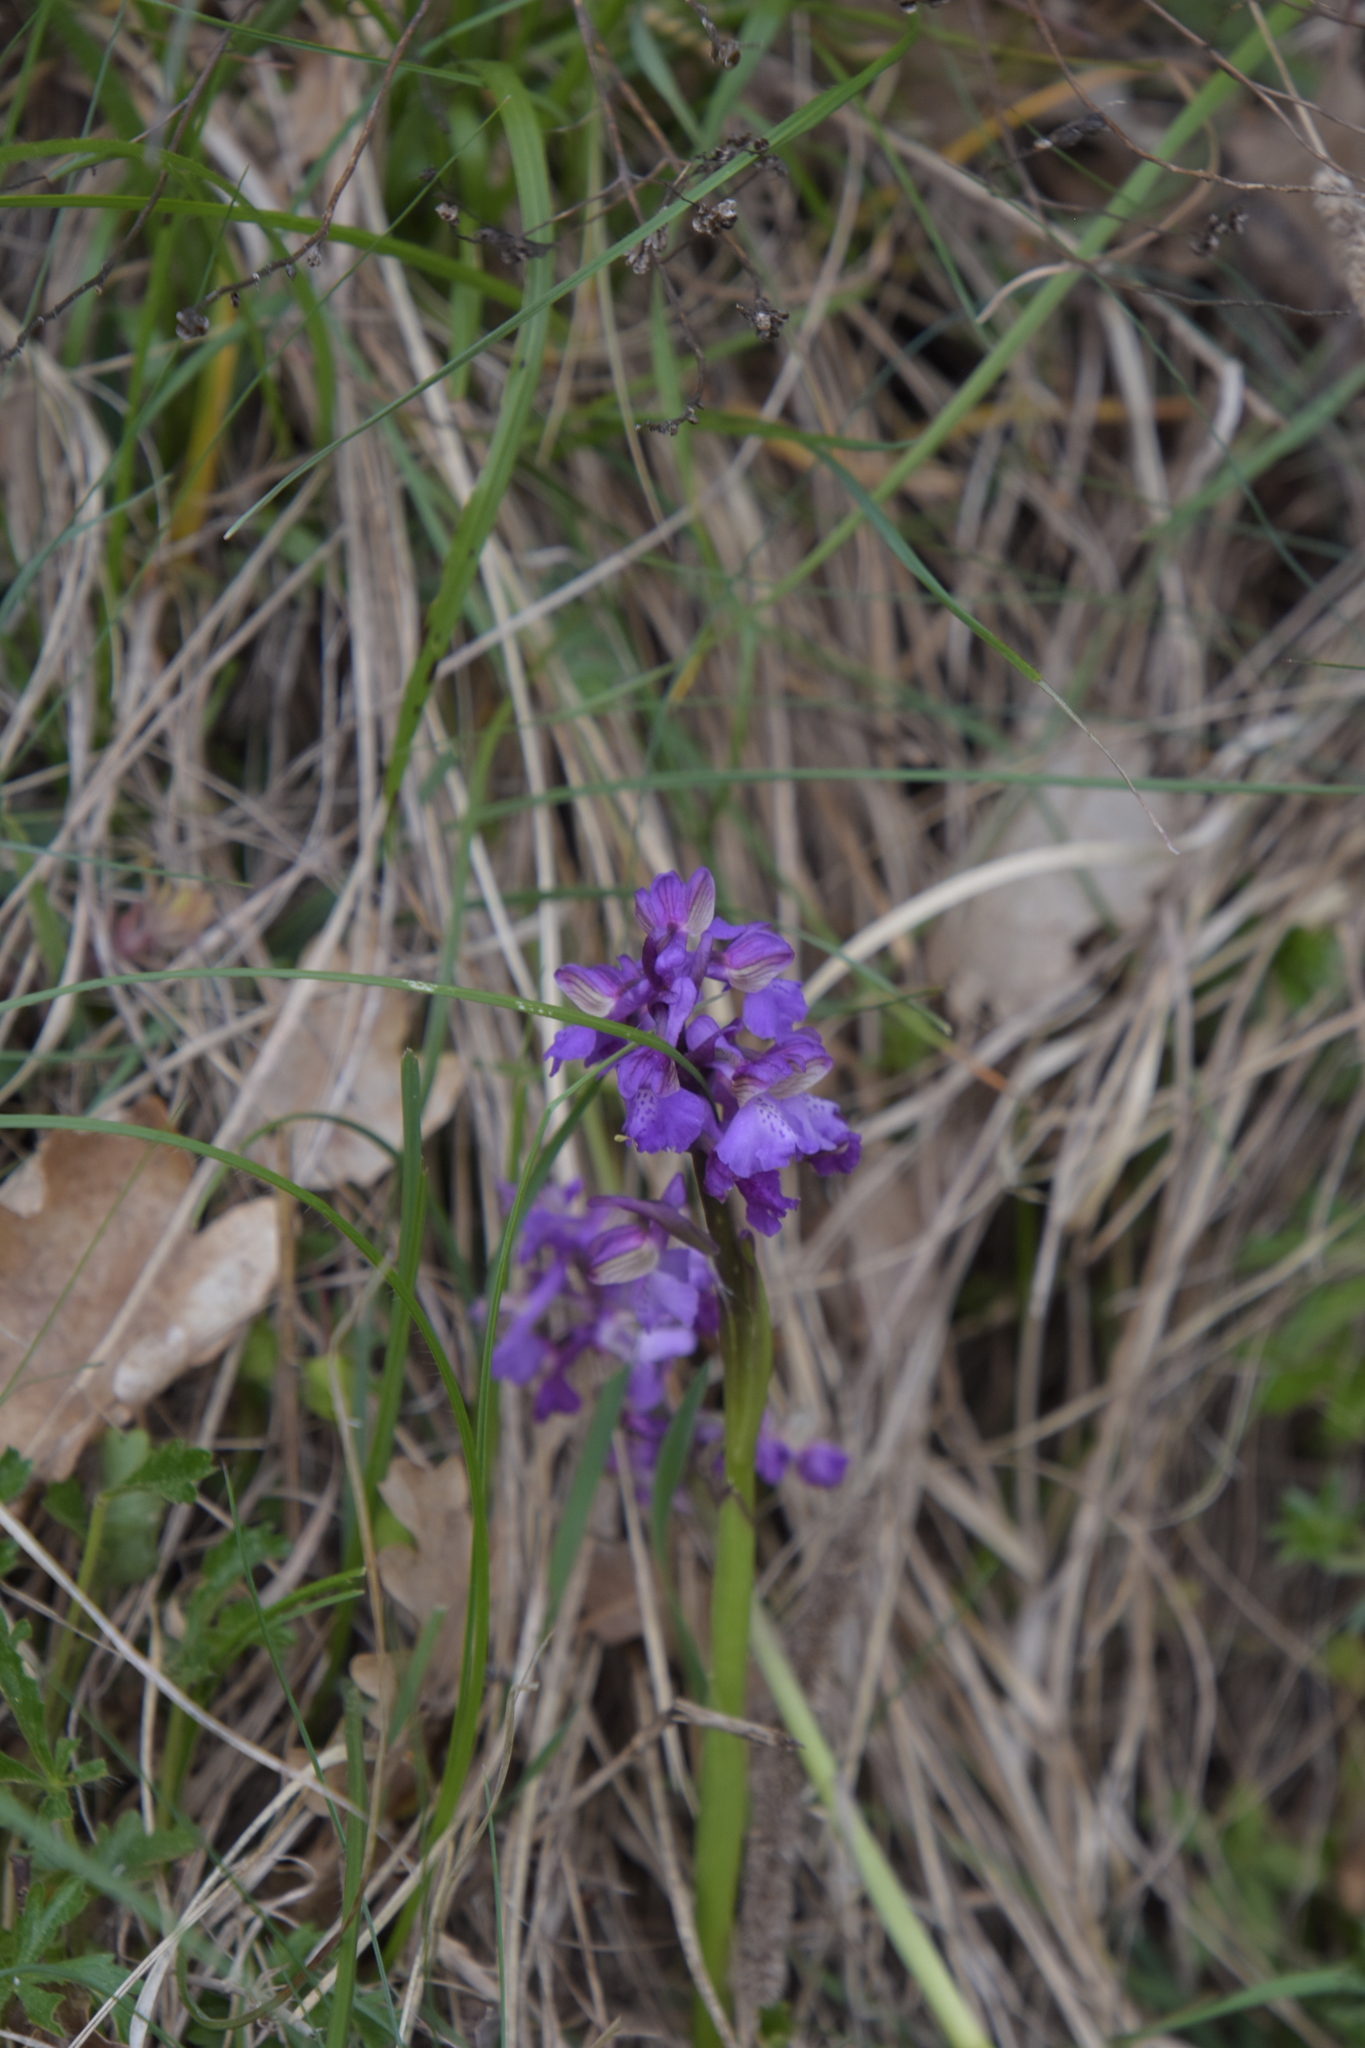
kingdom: Plantae
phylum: Tracheophyta
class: Liliopsida
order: Asparagales
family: Orchidaceae
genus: Anacamptis
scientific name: Anacamptis morio
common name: Green-winged orchid
